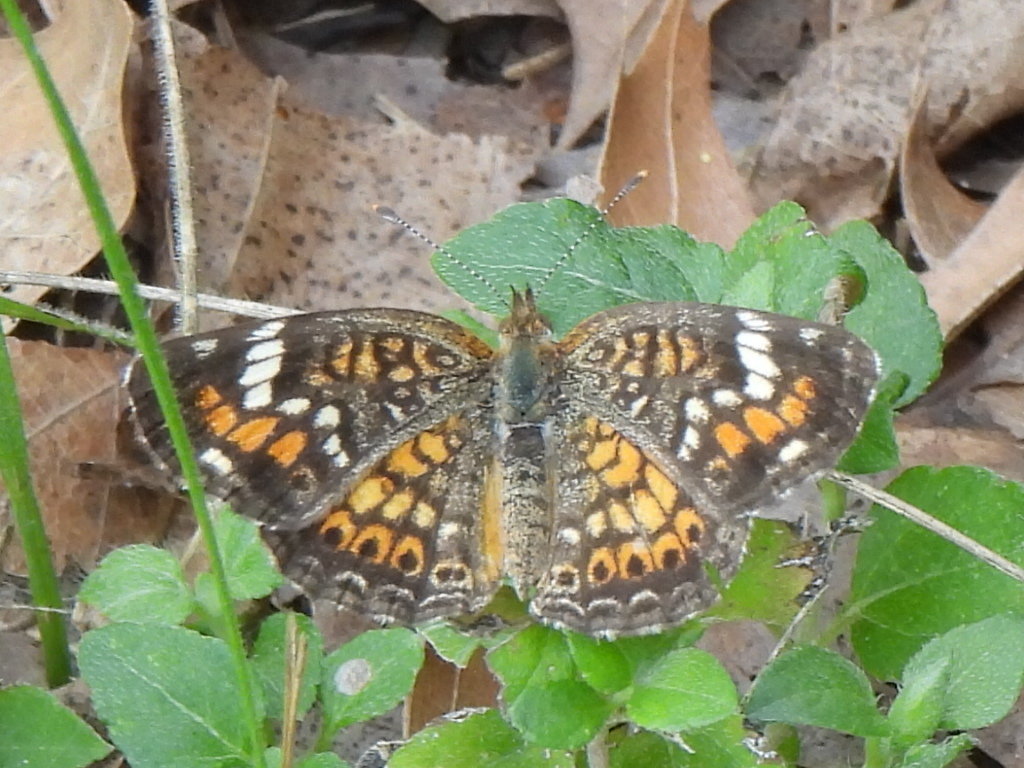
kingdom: Animalia
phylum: Arthropoda
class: Insecta
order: Lepidoptera
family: Nymphalidae
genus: Phyciodes
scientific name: Phyciodes phaon
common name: Phaon crescent
